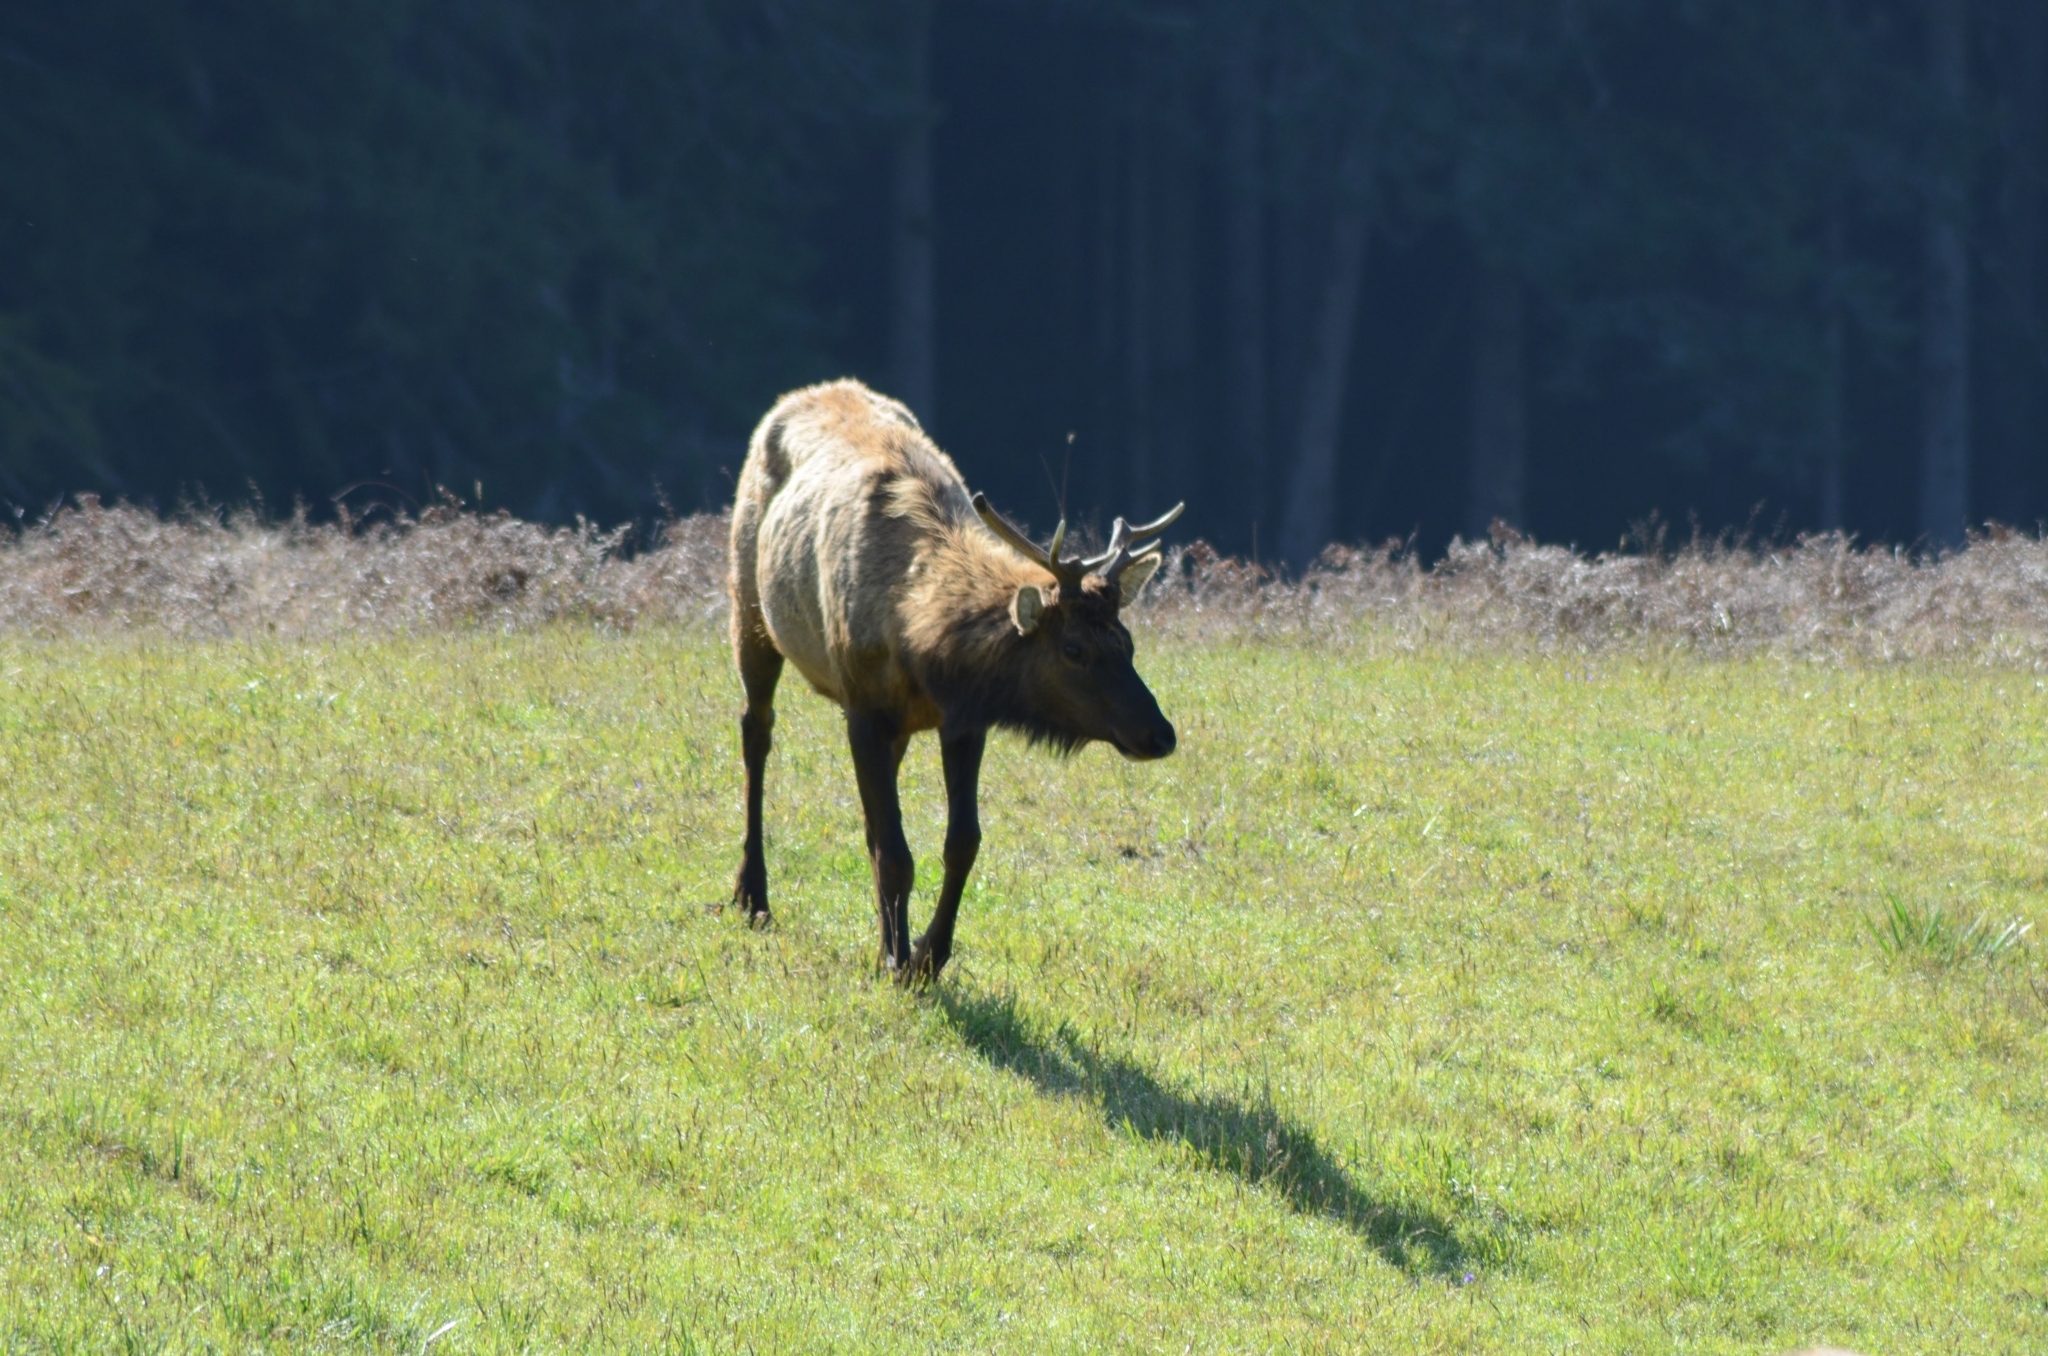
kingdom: Animalia
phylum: Chordata
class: Mammalia
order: Artiodactyla
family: Cervidae
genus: Cervus
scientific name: Cervus elaphus
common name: Red deer
